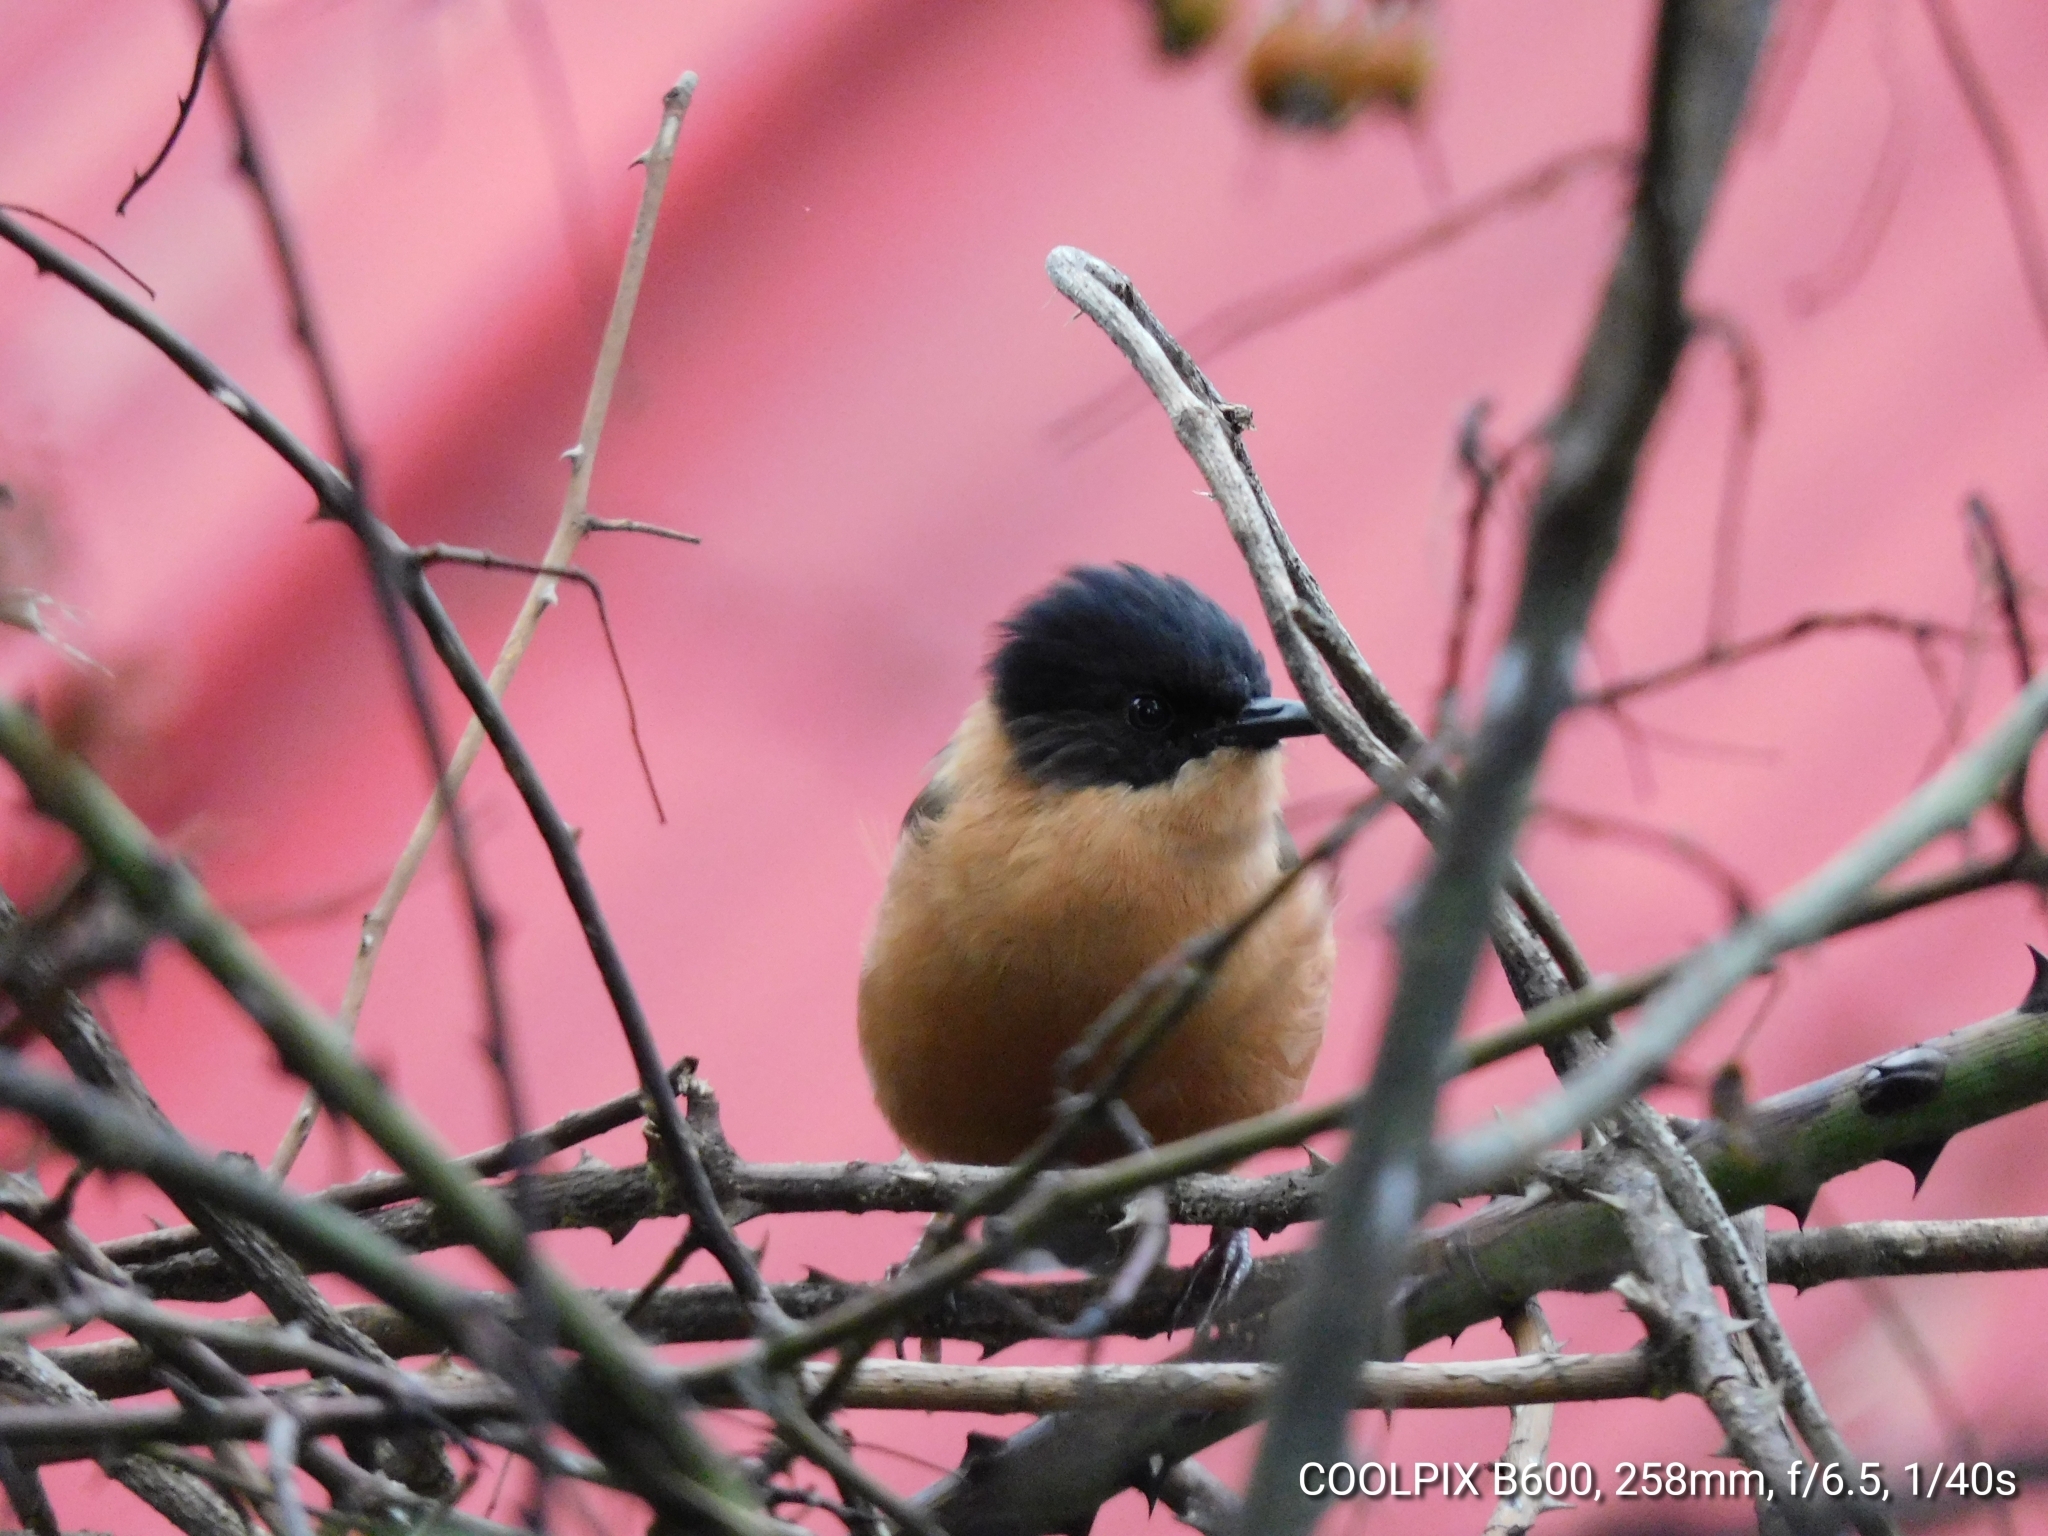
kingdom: Animalia
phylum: Chordata
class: Aves
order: Passeriformes
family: Leiothrichidae
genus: Heterophasia
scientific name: Heterophasia capistrata
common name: Rufous sibia
